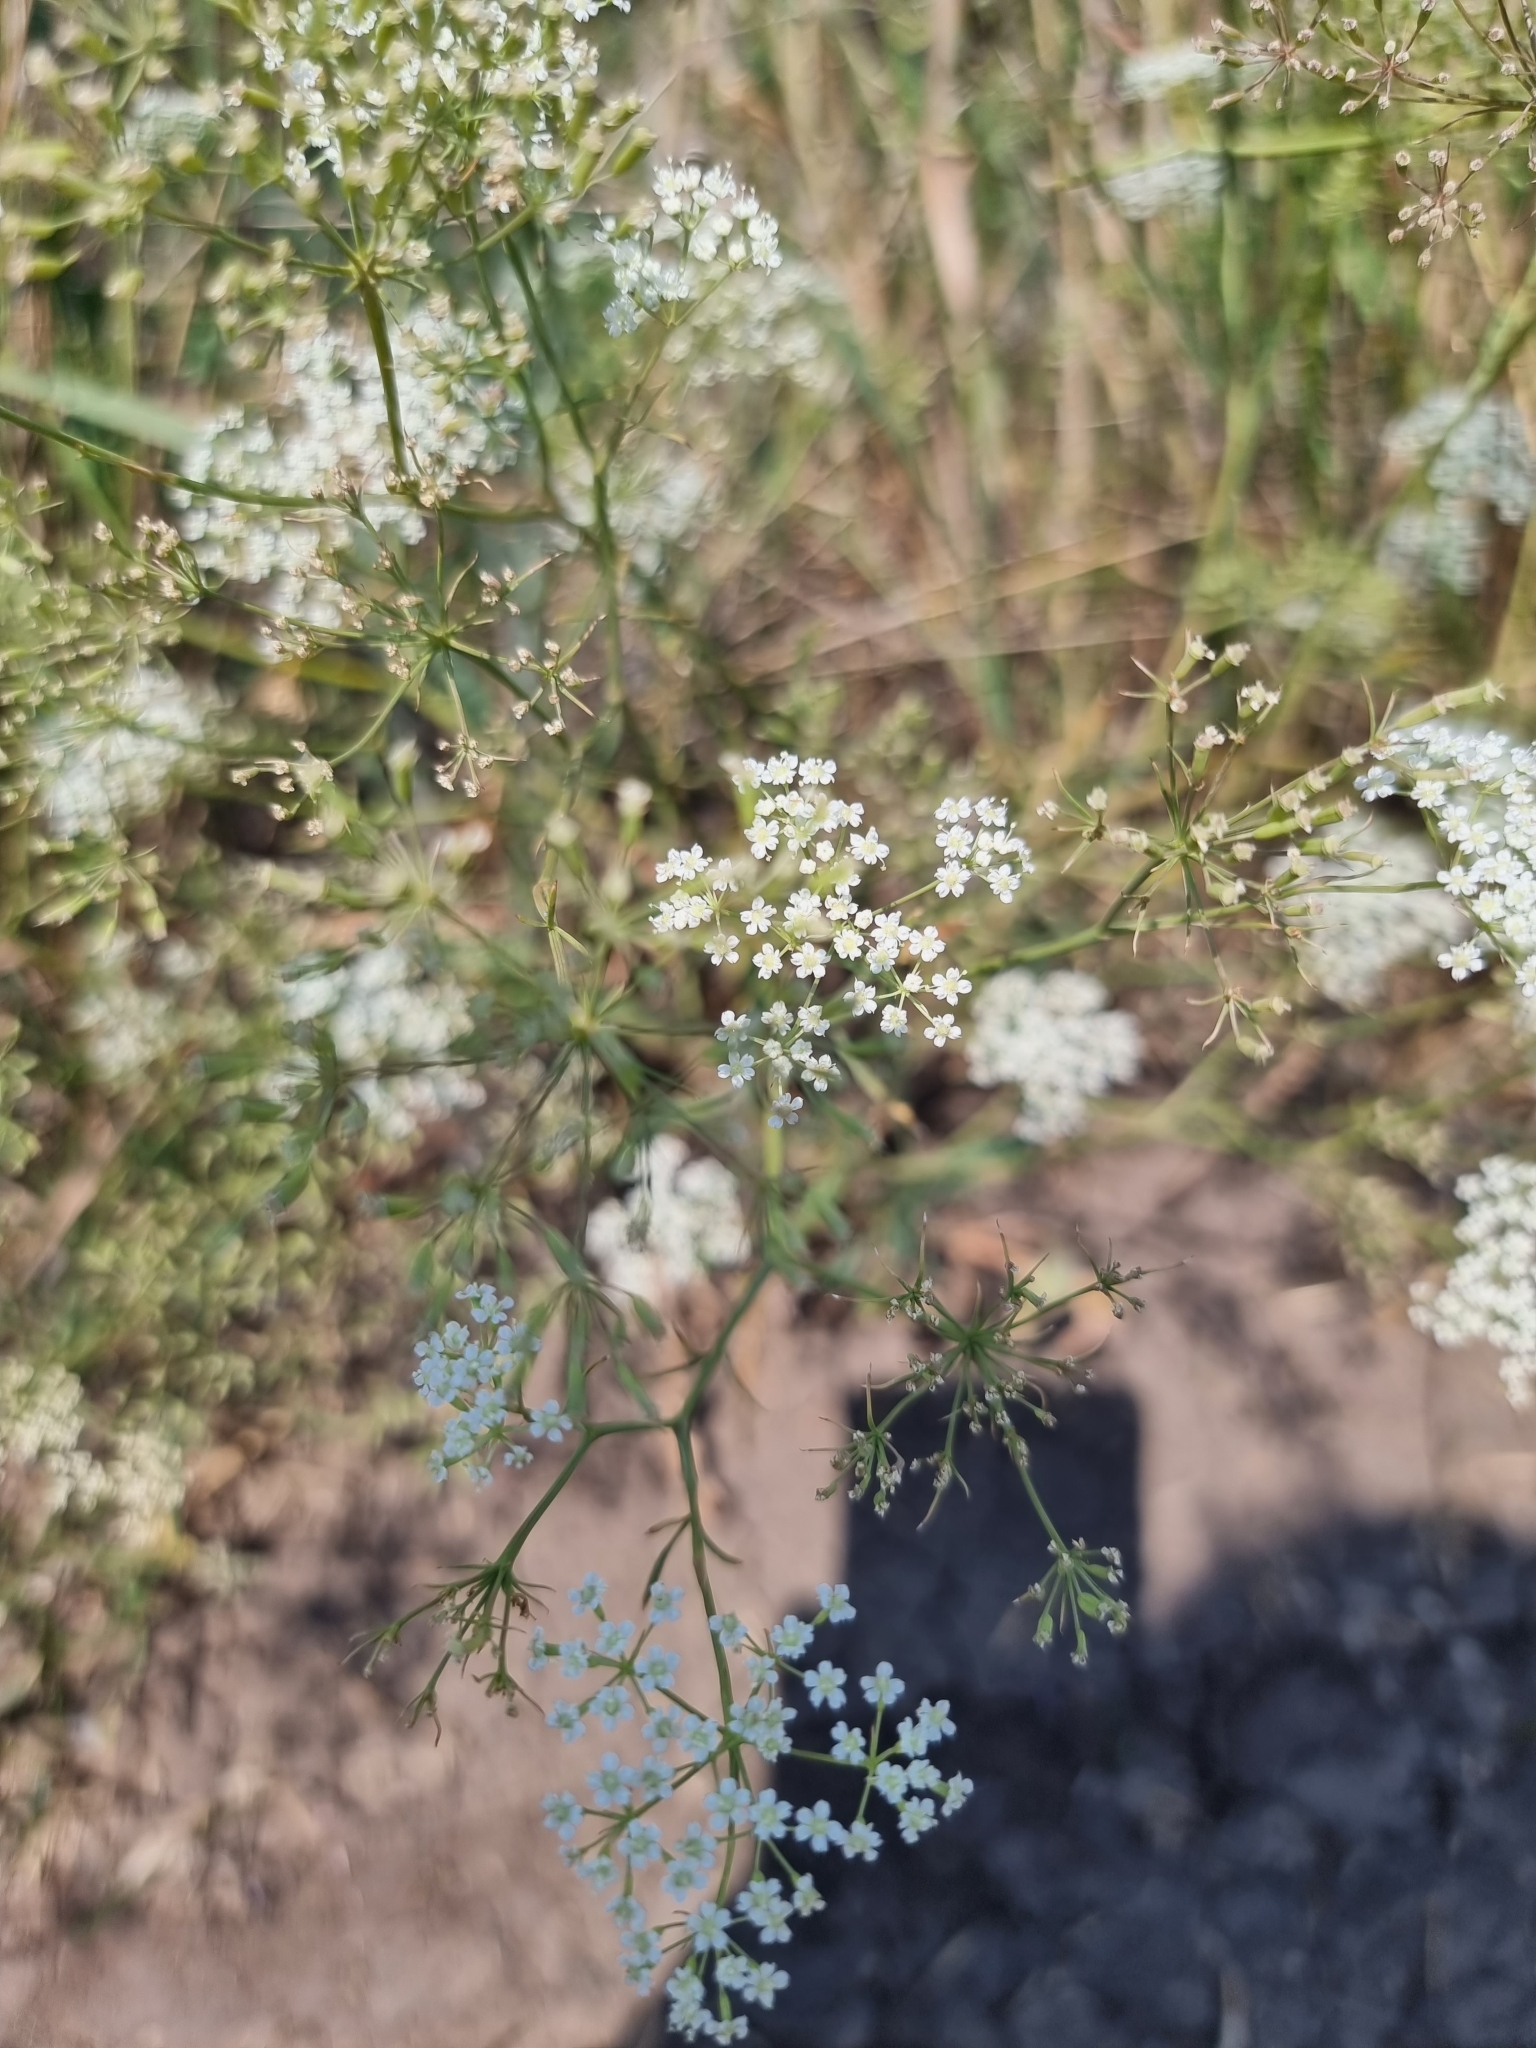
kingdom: Plantae
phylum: Tracheophyta
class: Magnoliopsida
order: Apiales
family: Apiaceae
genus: Falcaria
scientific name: Falcaria vulgaris
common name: Longleaf
